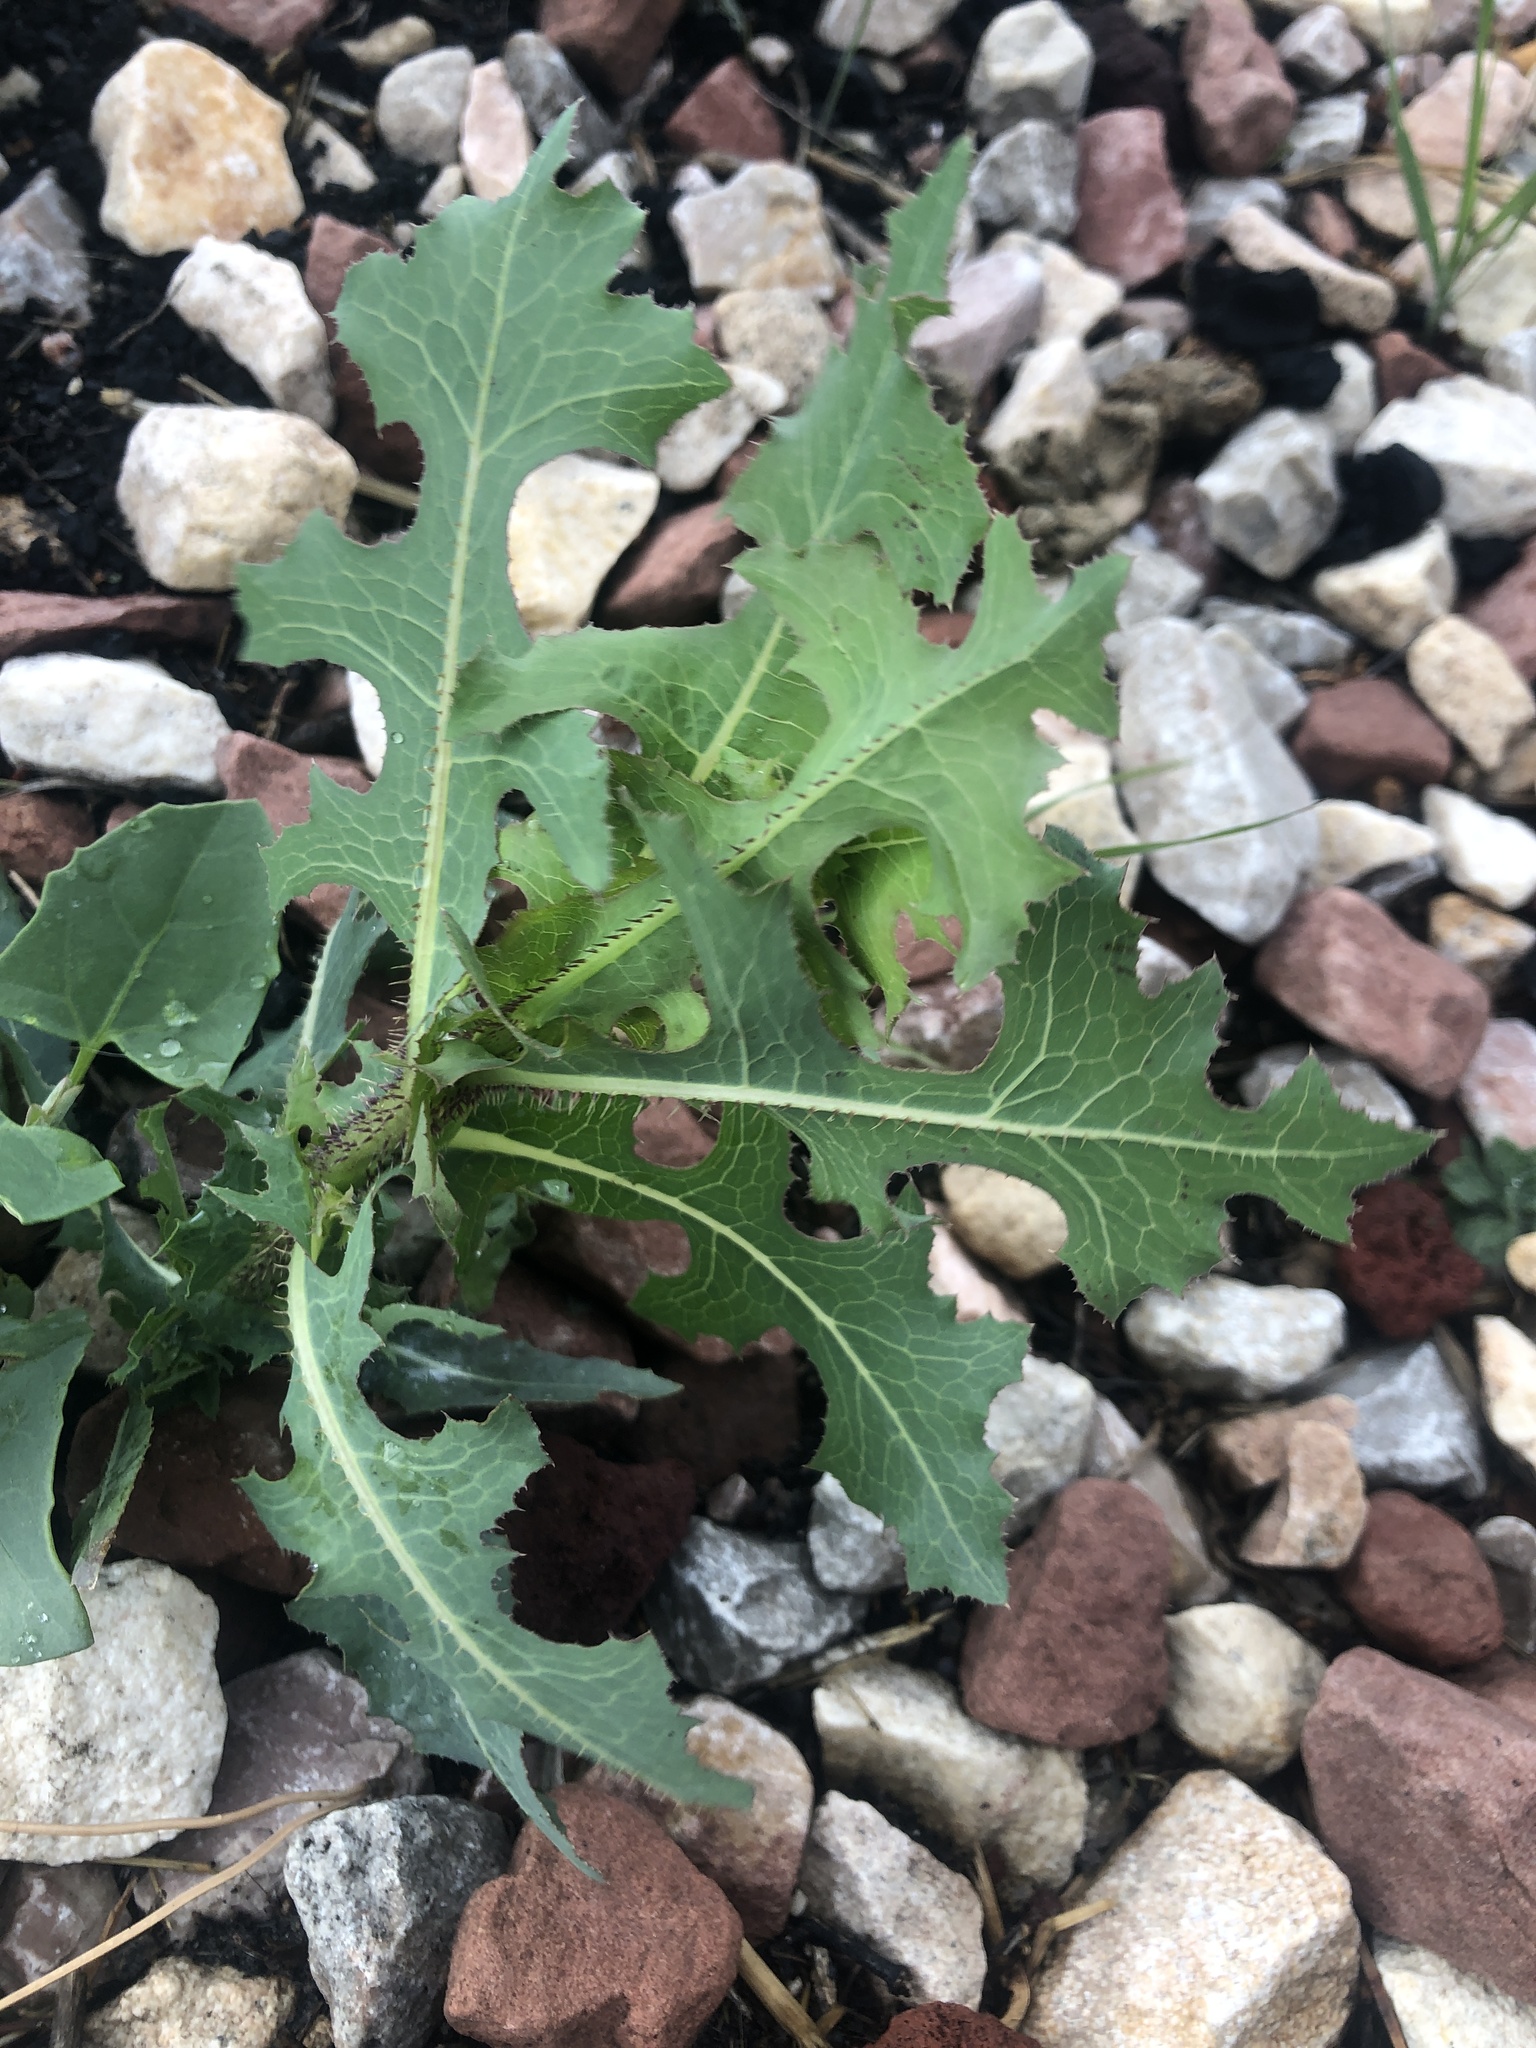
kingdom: Plantae
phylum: Tracheophyta
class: Magnoliopsida
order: Asterales
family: Asteraceae
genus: Lactuca
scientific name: Lactuca serriola
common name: Prickly lettuce
